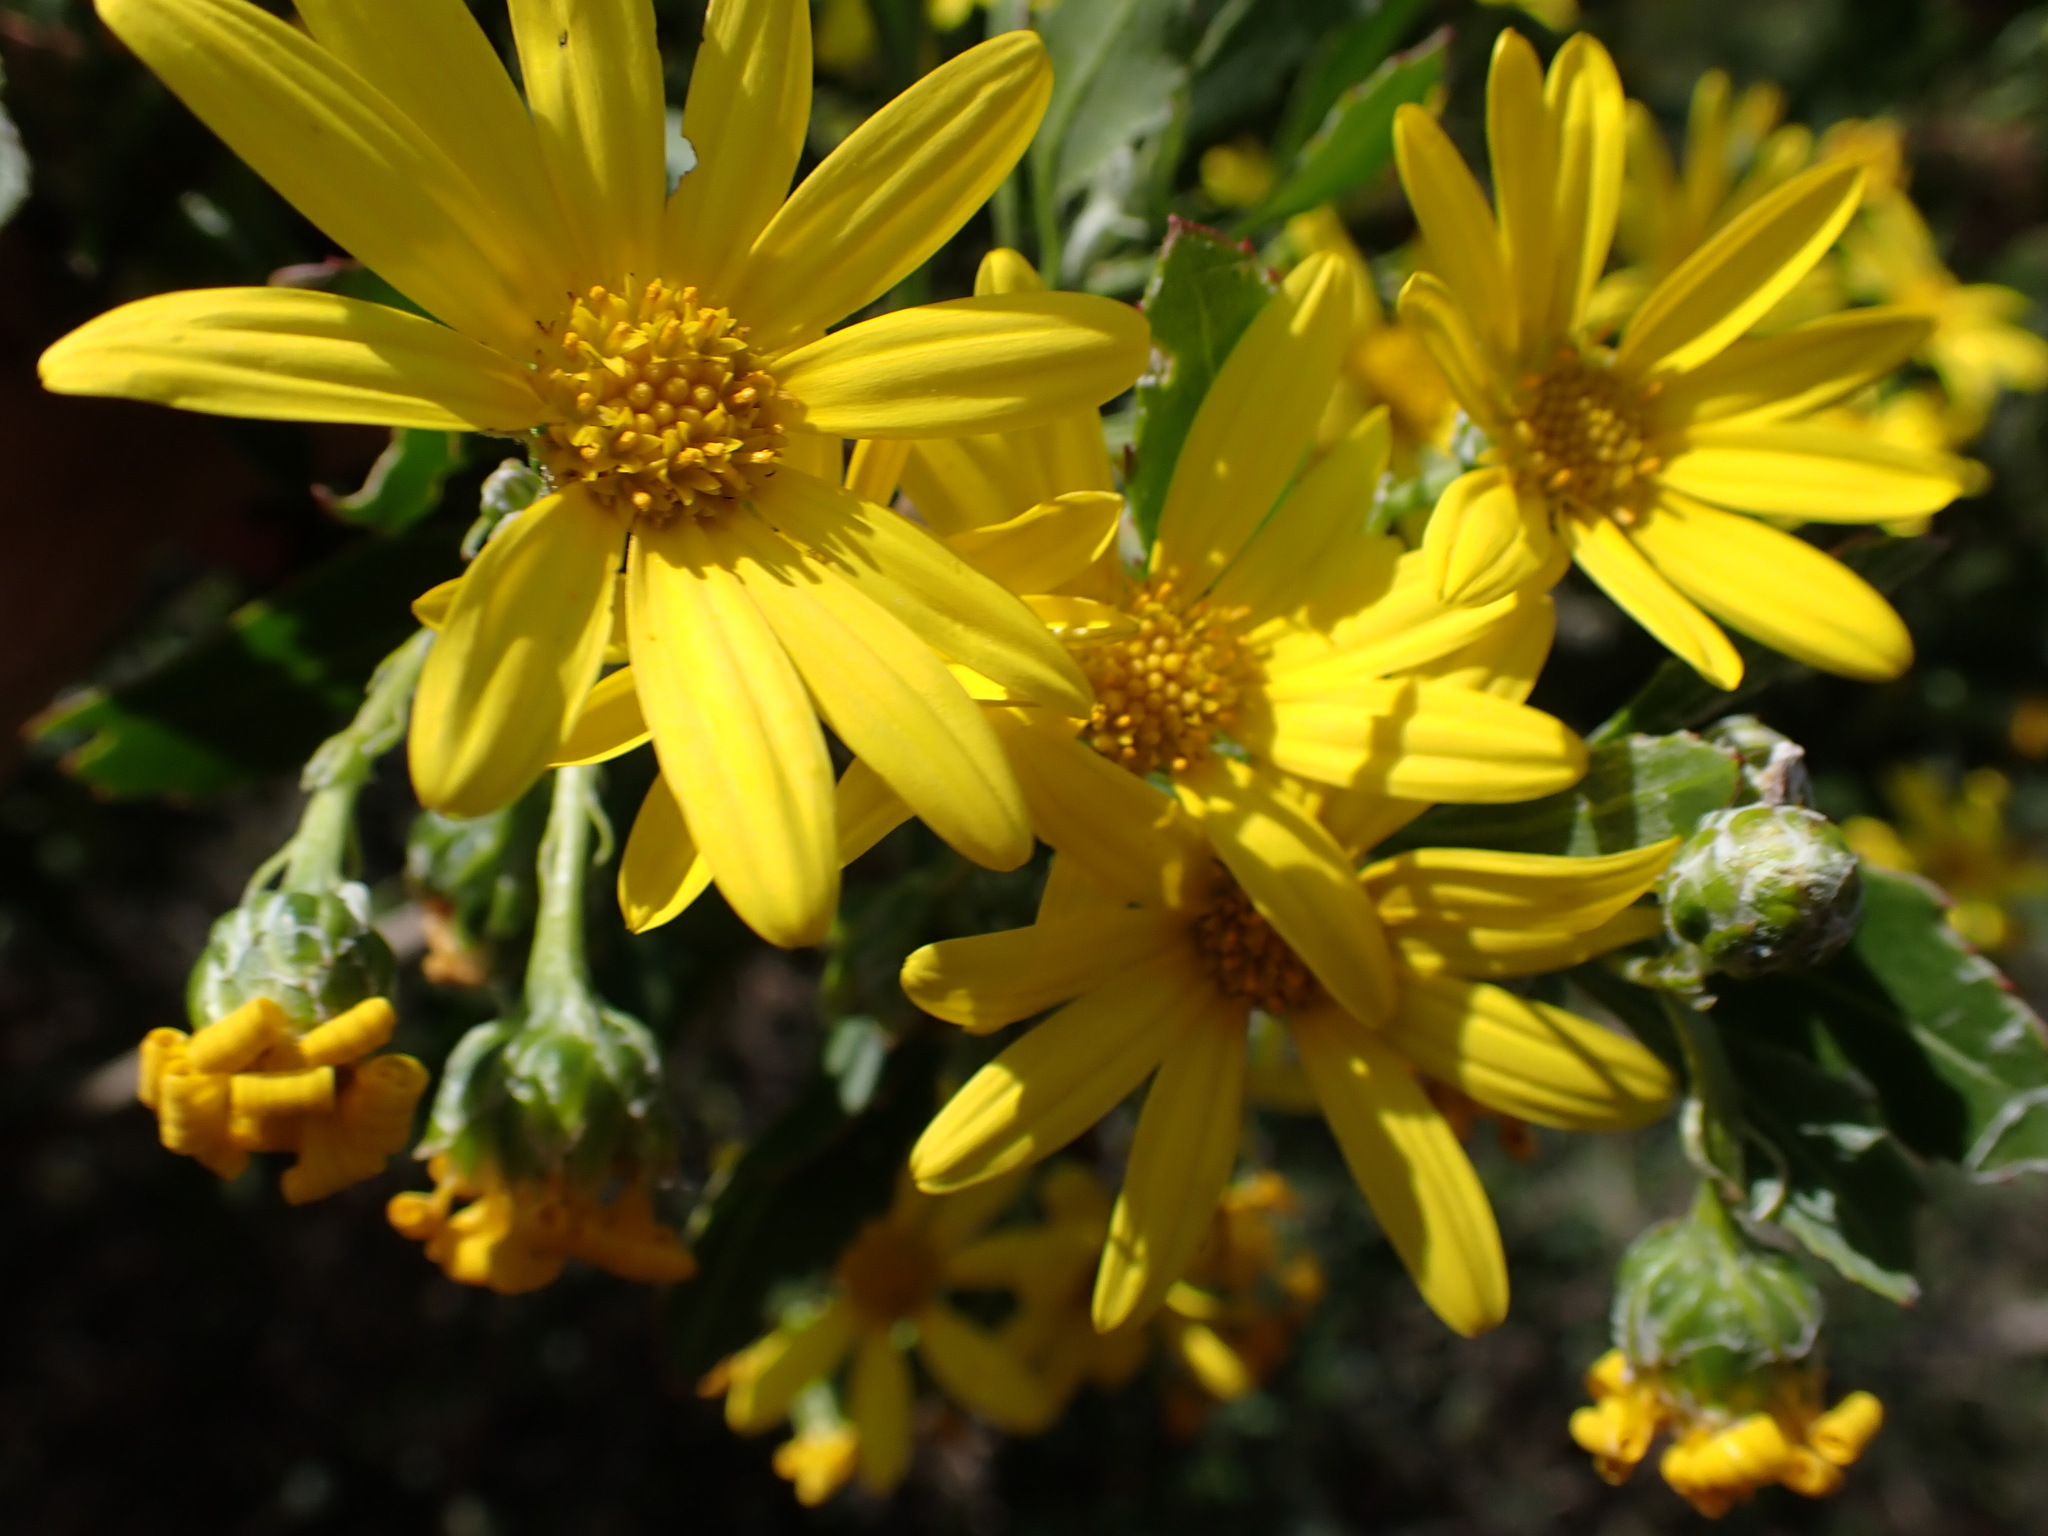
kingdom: Plantae
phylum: Tracheophyta
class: Magnoliopsida
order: Asterales
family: Asteraceae
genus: Osteospermum
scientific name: Osteospermum moniliferum
